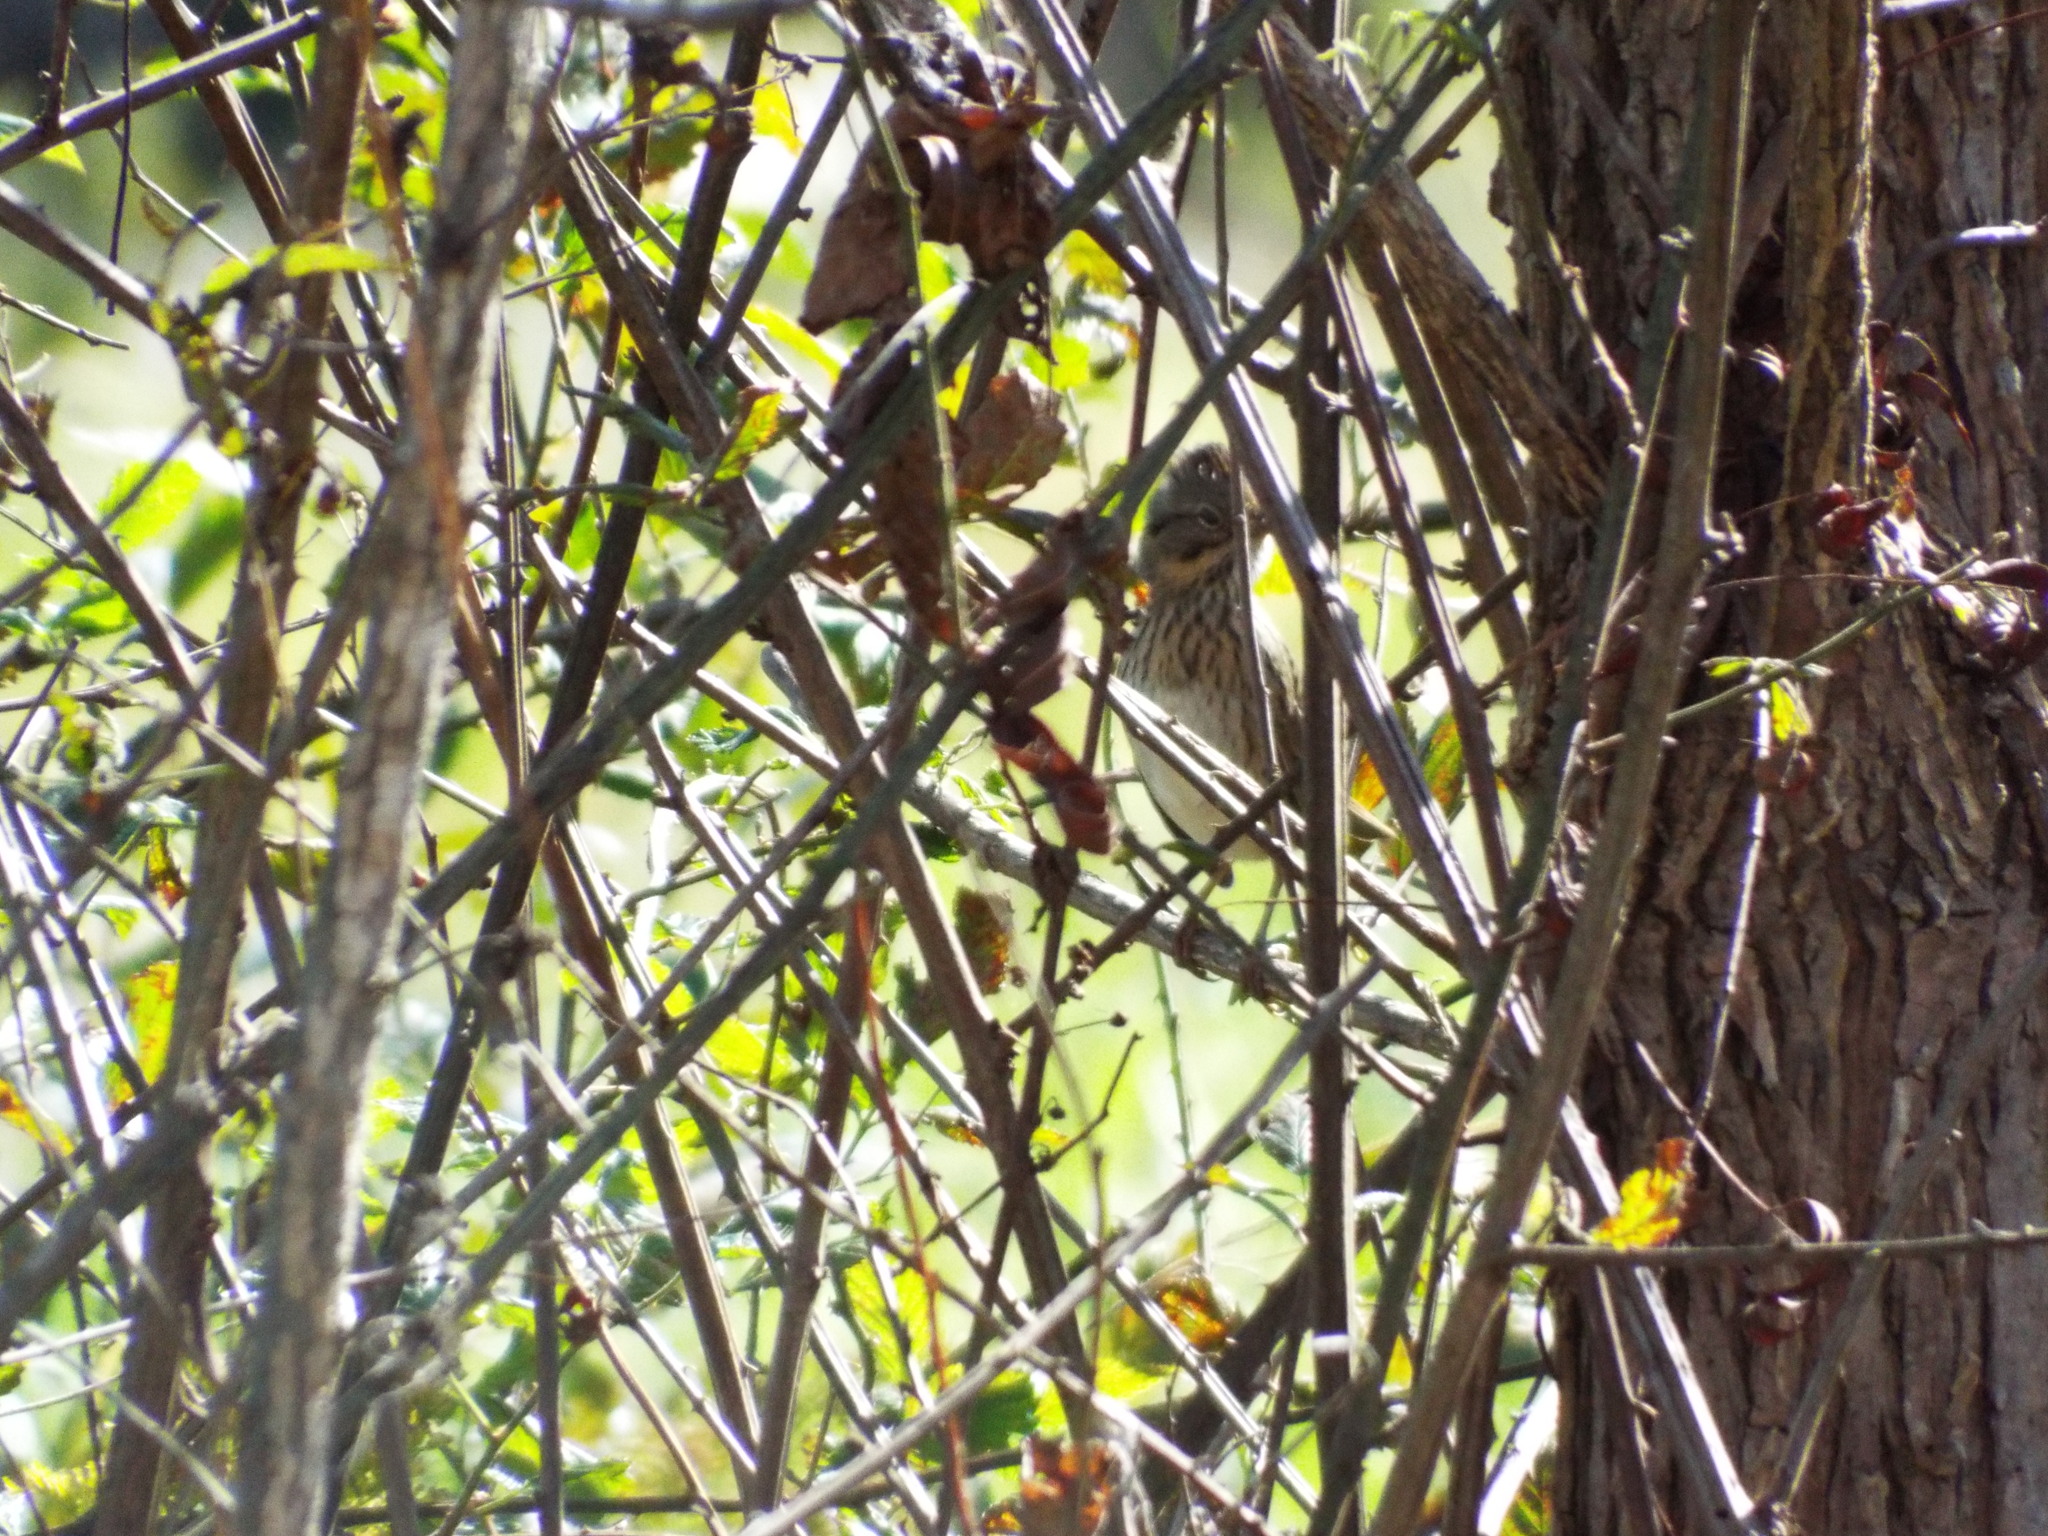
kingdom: Animalia
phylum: Chordata
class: Aves
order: Passeriformes
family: Passerellidae
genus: Melospiza
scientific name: Melospiza lincolnii
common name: Lincoln's sparrow
